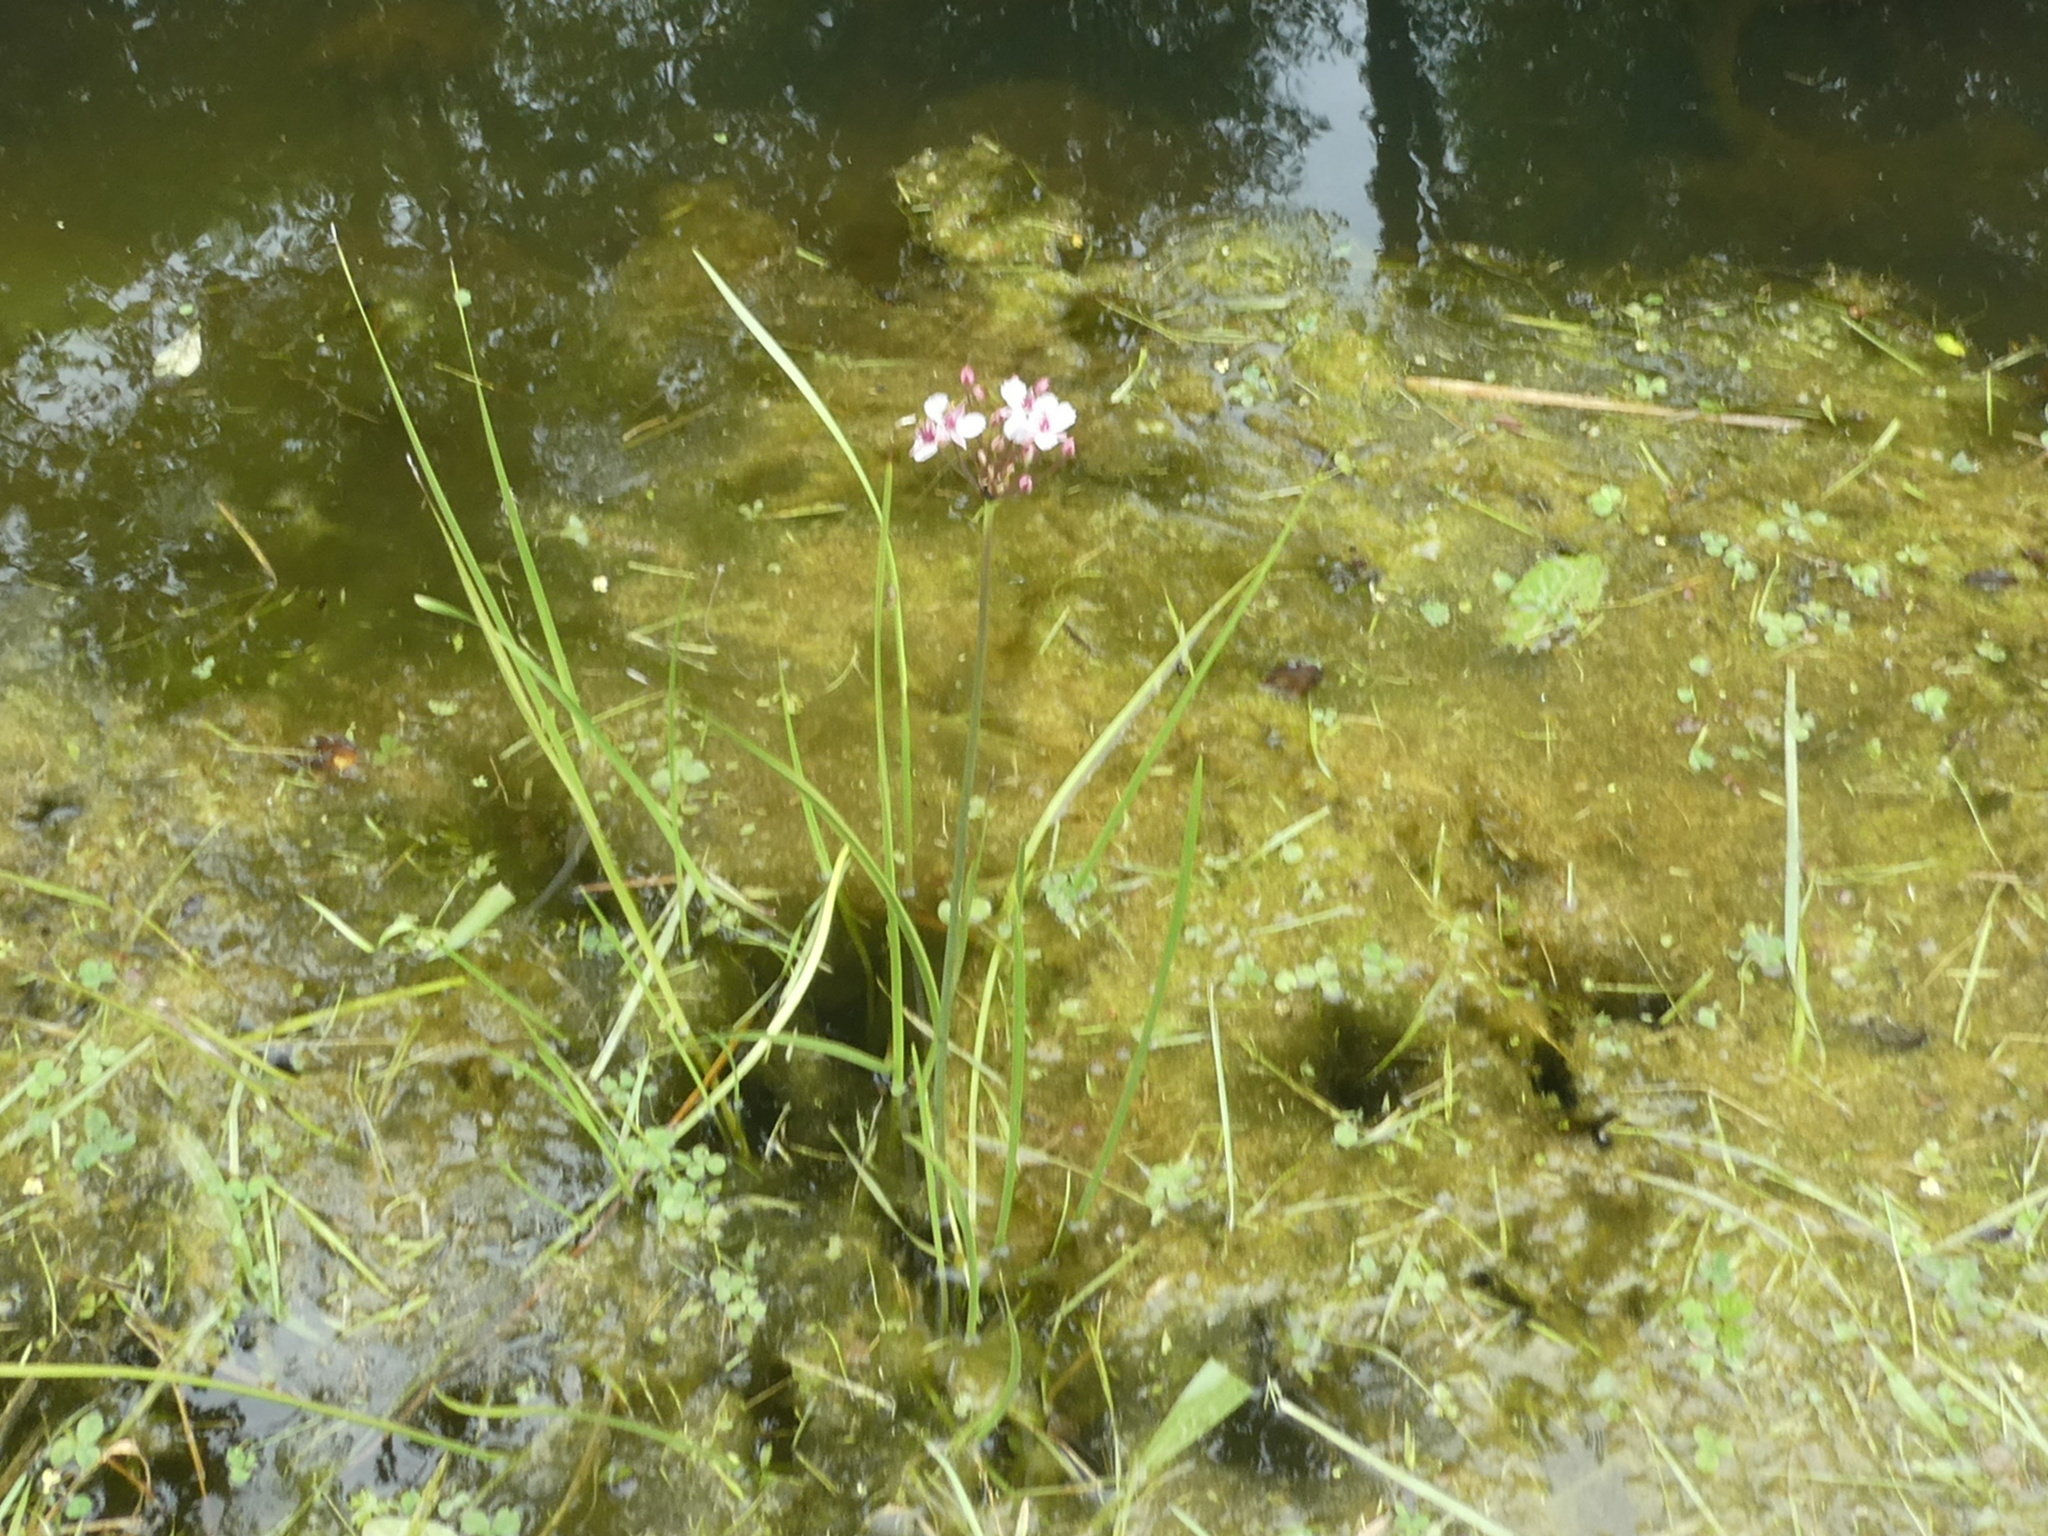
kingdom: Plantae
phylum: Tracheophyta
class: Liliopsida
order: Alismatales
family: Butomaceae
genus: Butomus
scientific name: Butomus umbellatus
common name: Flowering-rush
